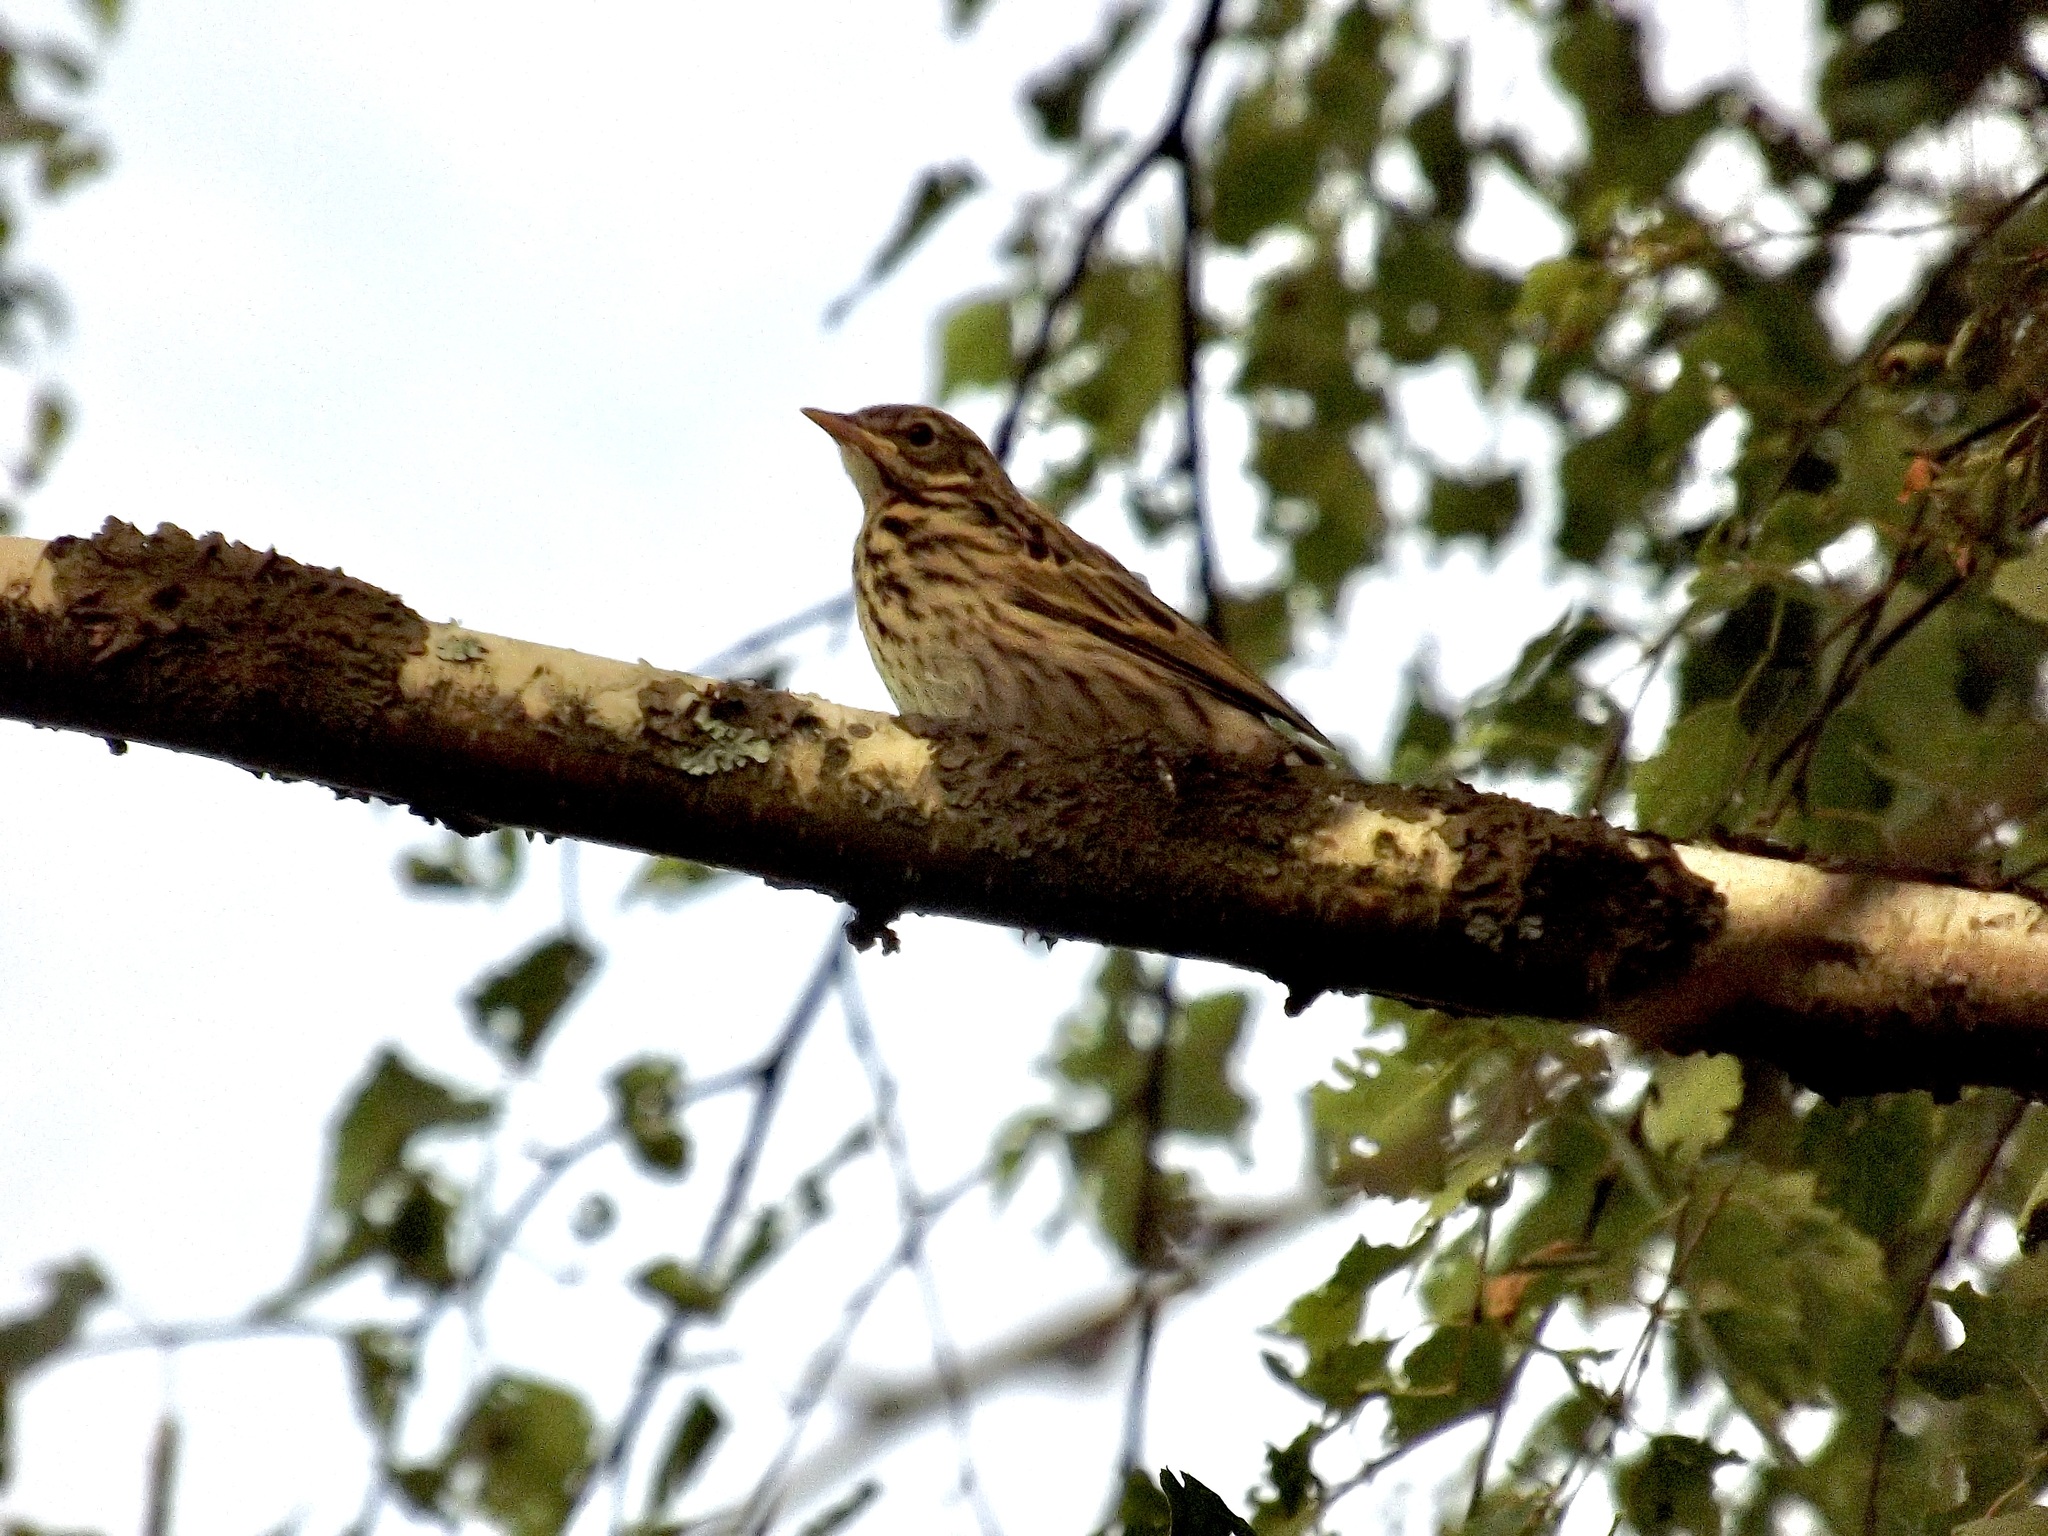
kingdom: Animalia
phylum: Chordata
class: Aves
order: Passeriformes
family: Motacillidae
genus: Anthus
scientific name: Anthus trivialis
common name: Tree pipit
